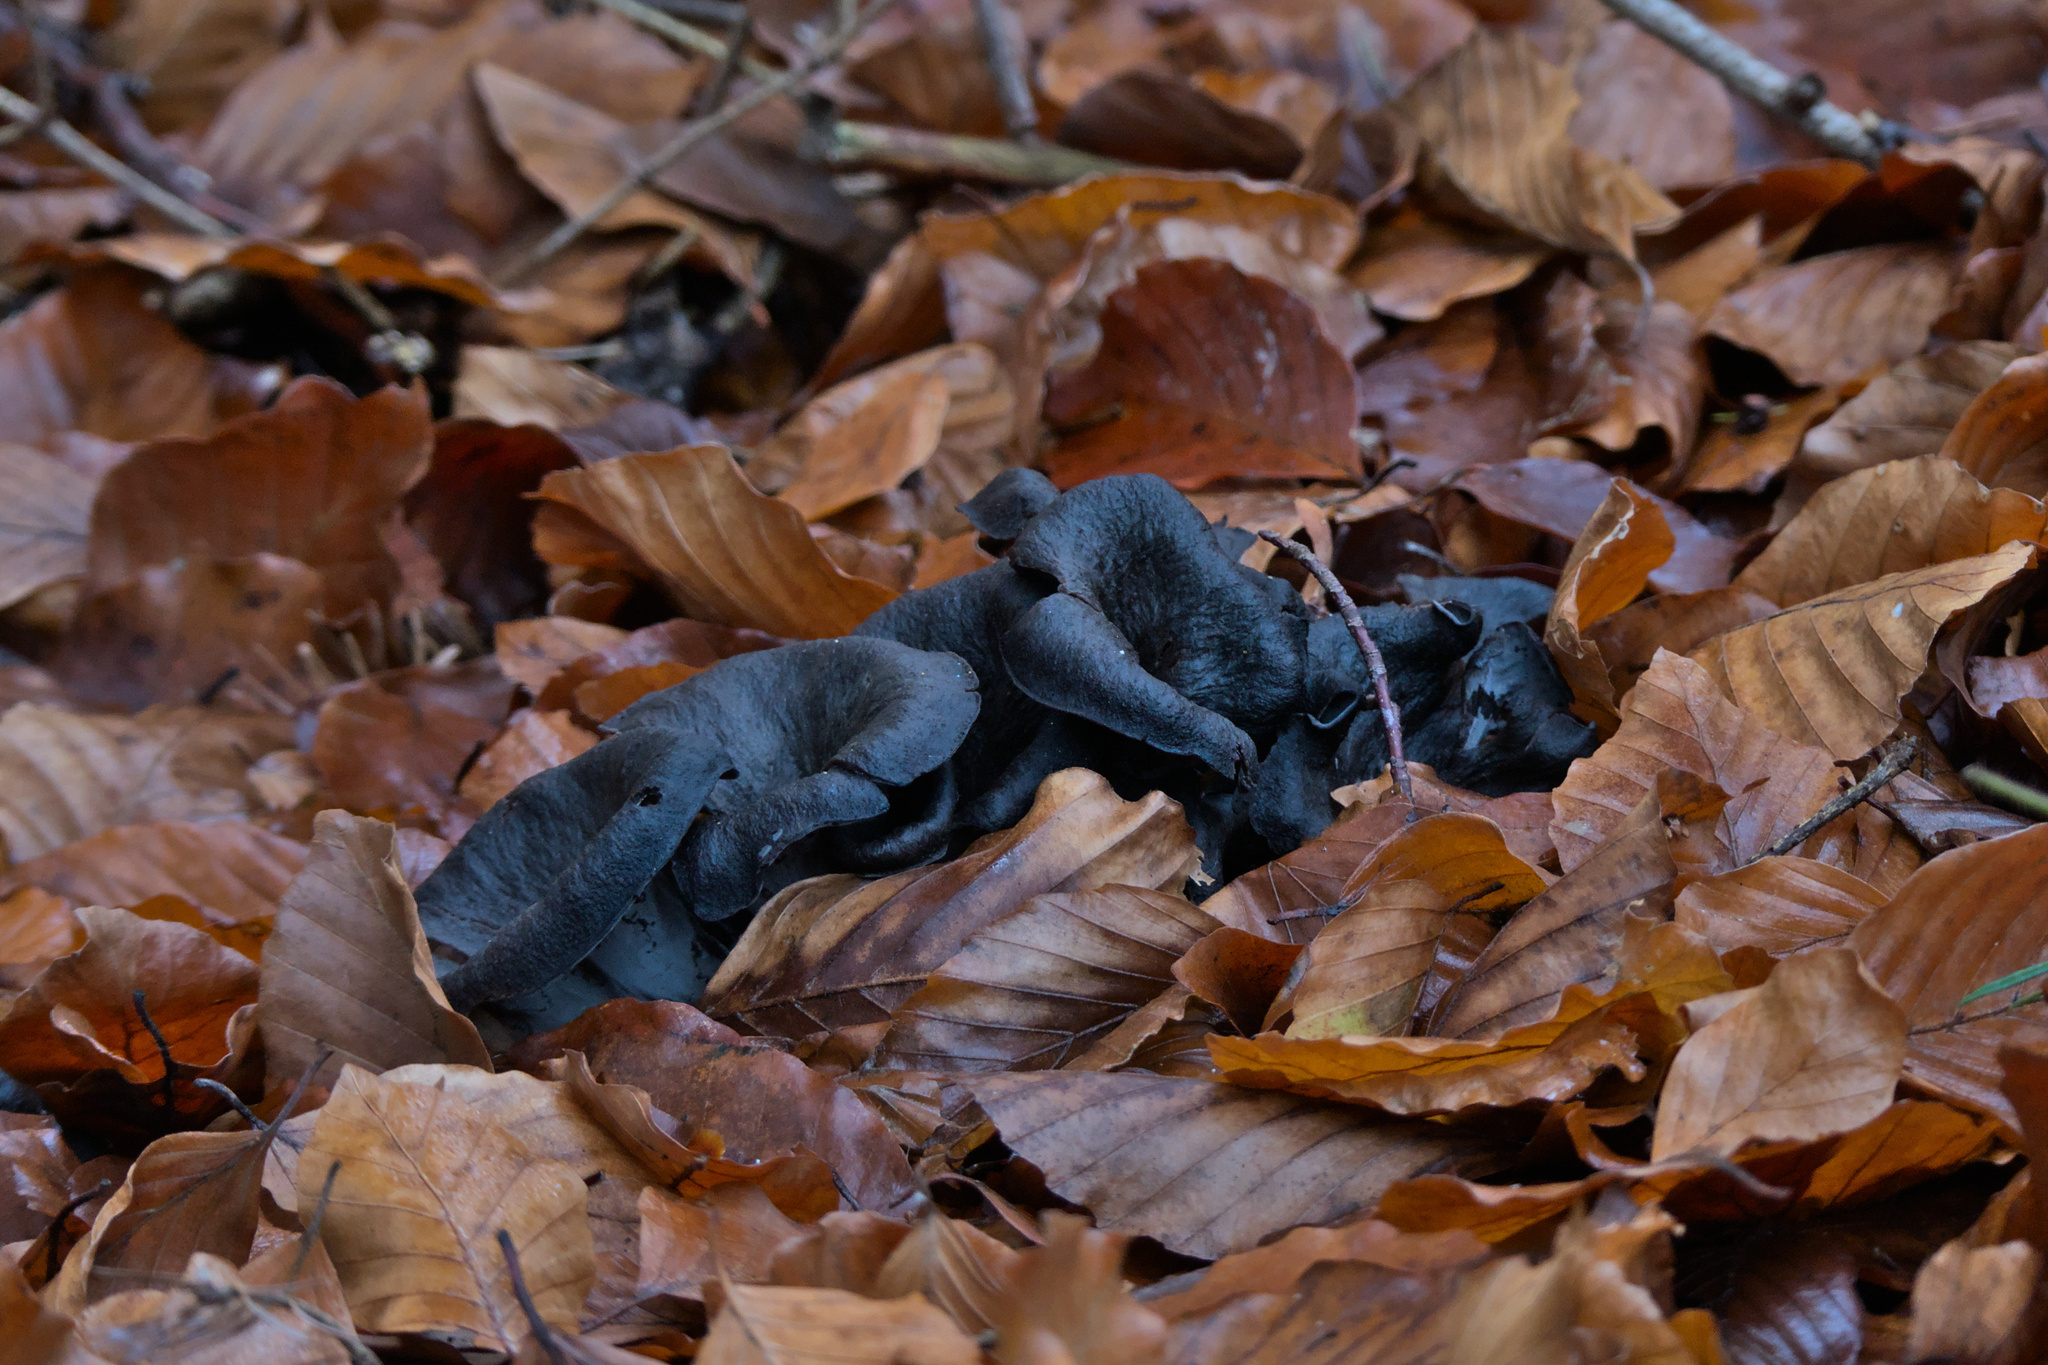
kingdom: Fungi
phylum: Basidiomycota
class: Agaricomycetes
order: Cantharellales
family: Hydnaceae
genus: Craterellus
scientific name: Craterellus cornucopioides
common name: Horn of plenty
